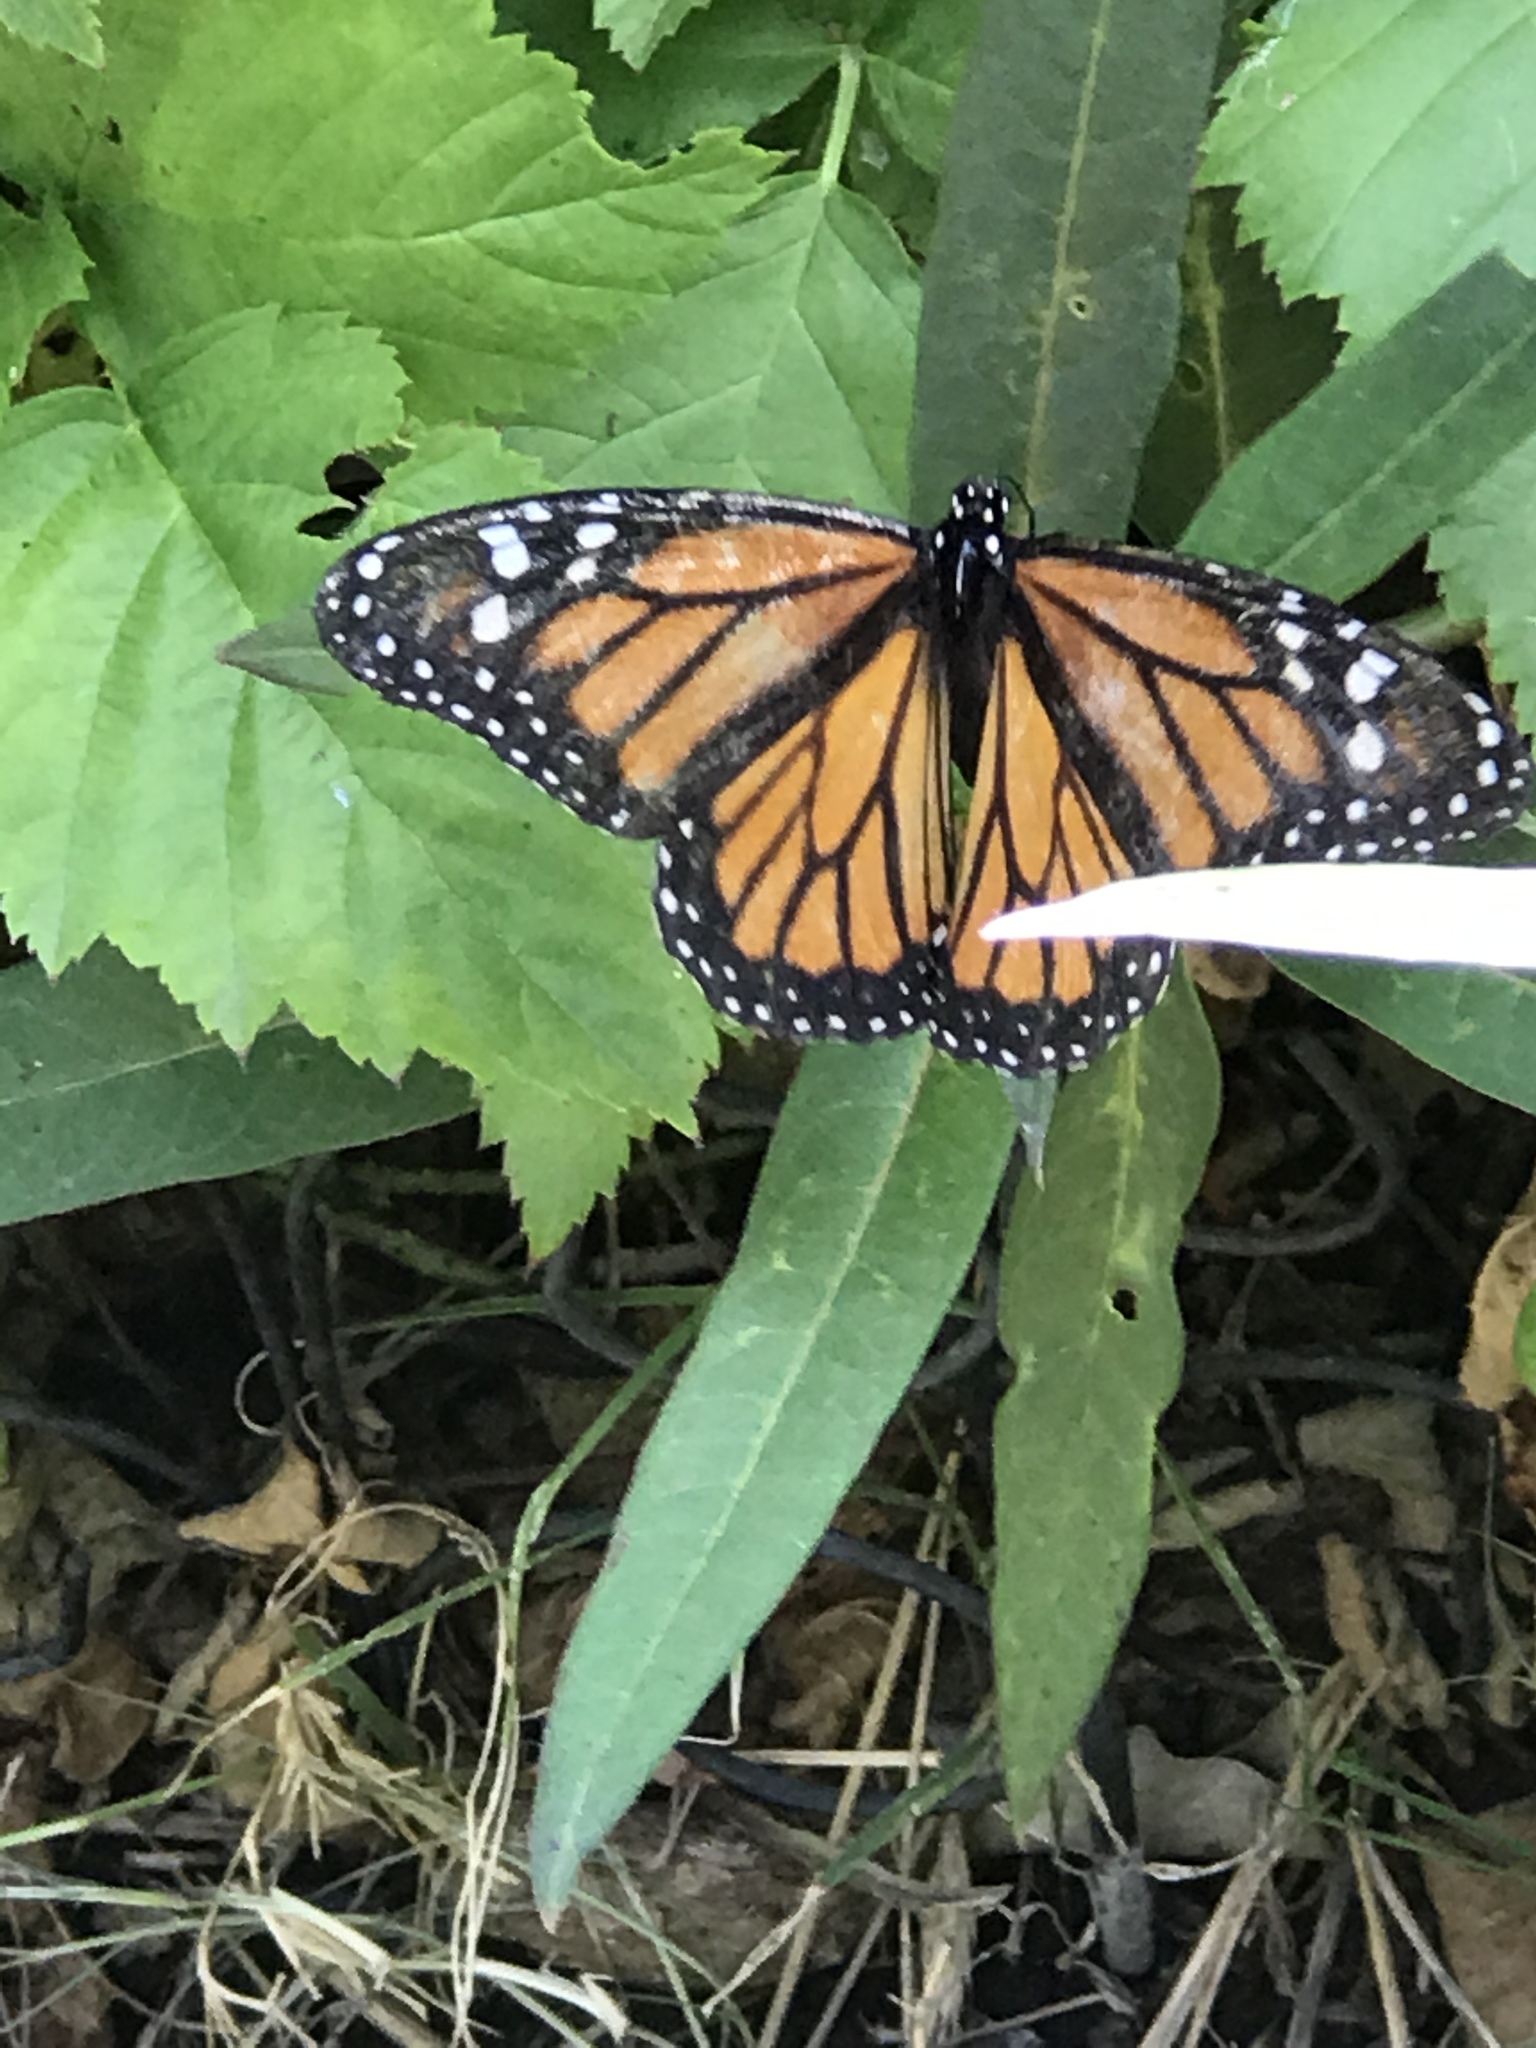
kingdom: Animalia
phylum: Arthropoda
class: Insecta
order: Lepidoptera
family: Nymphalidae
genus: Danaus
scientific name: Danaus plexippus
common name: Monarch
